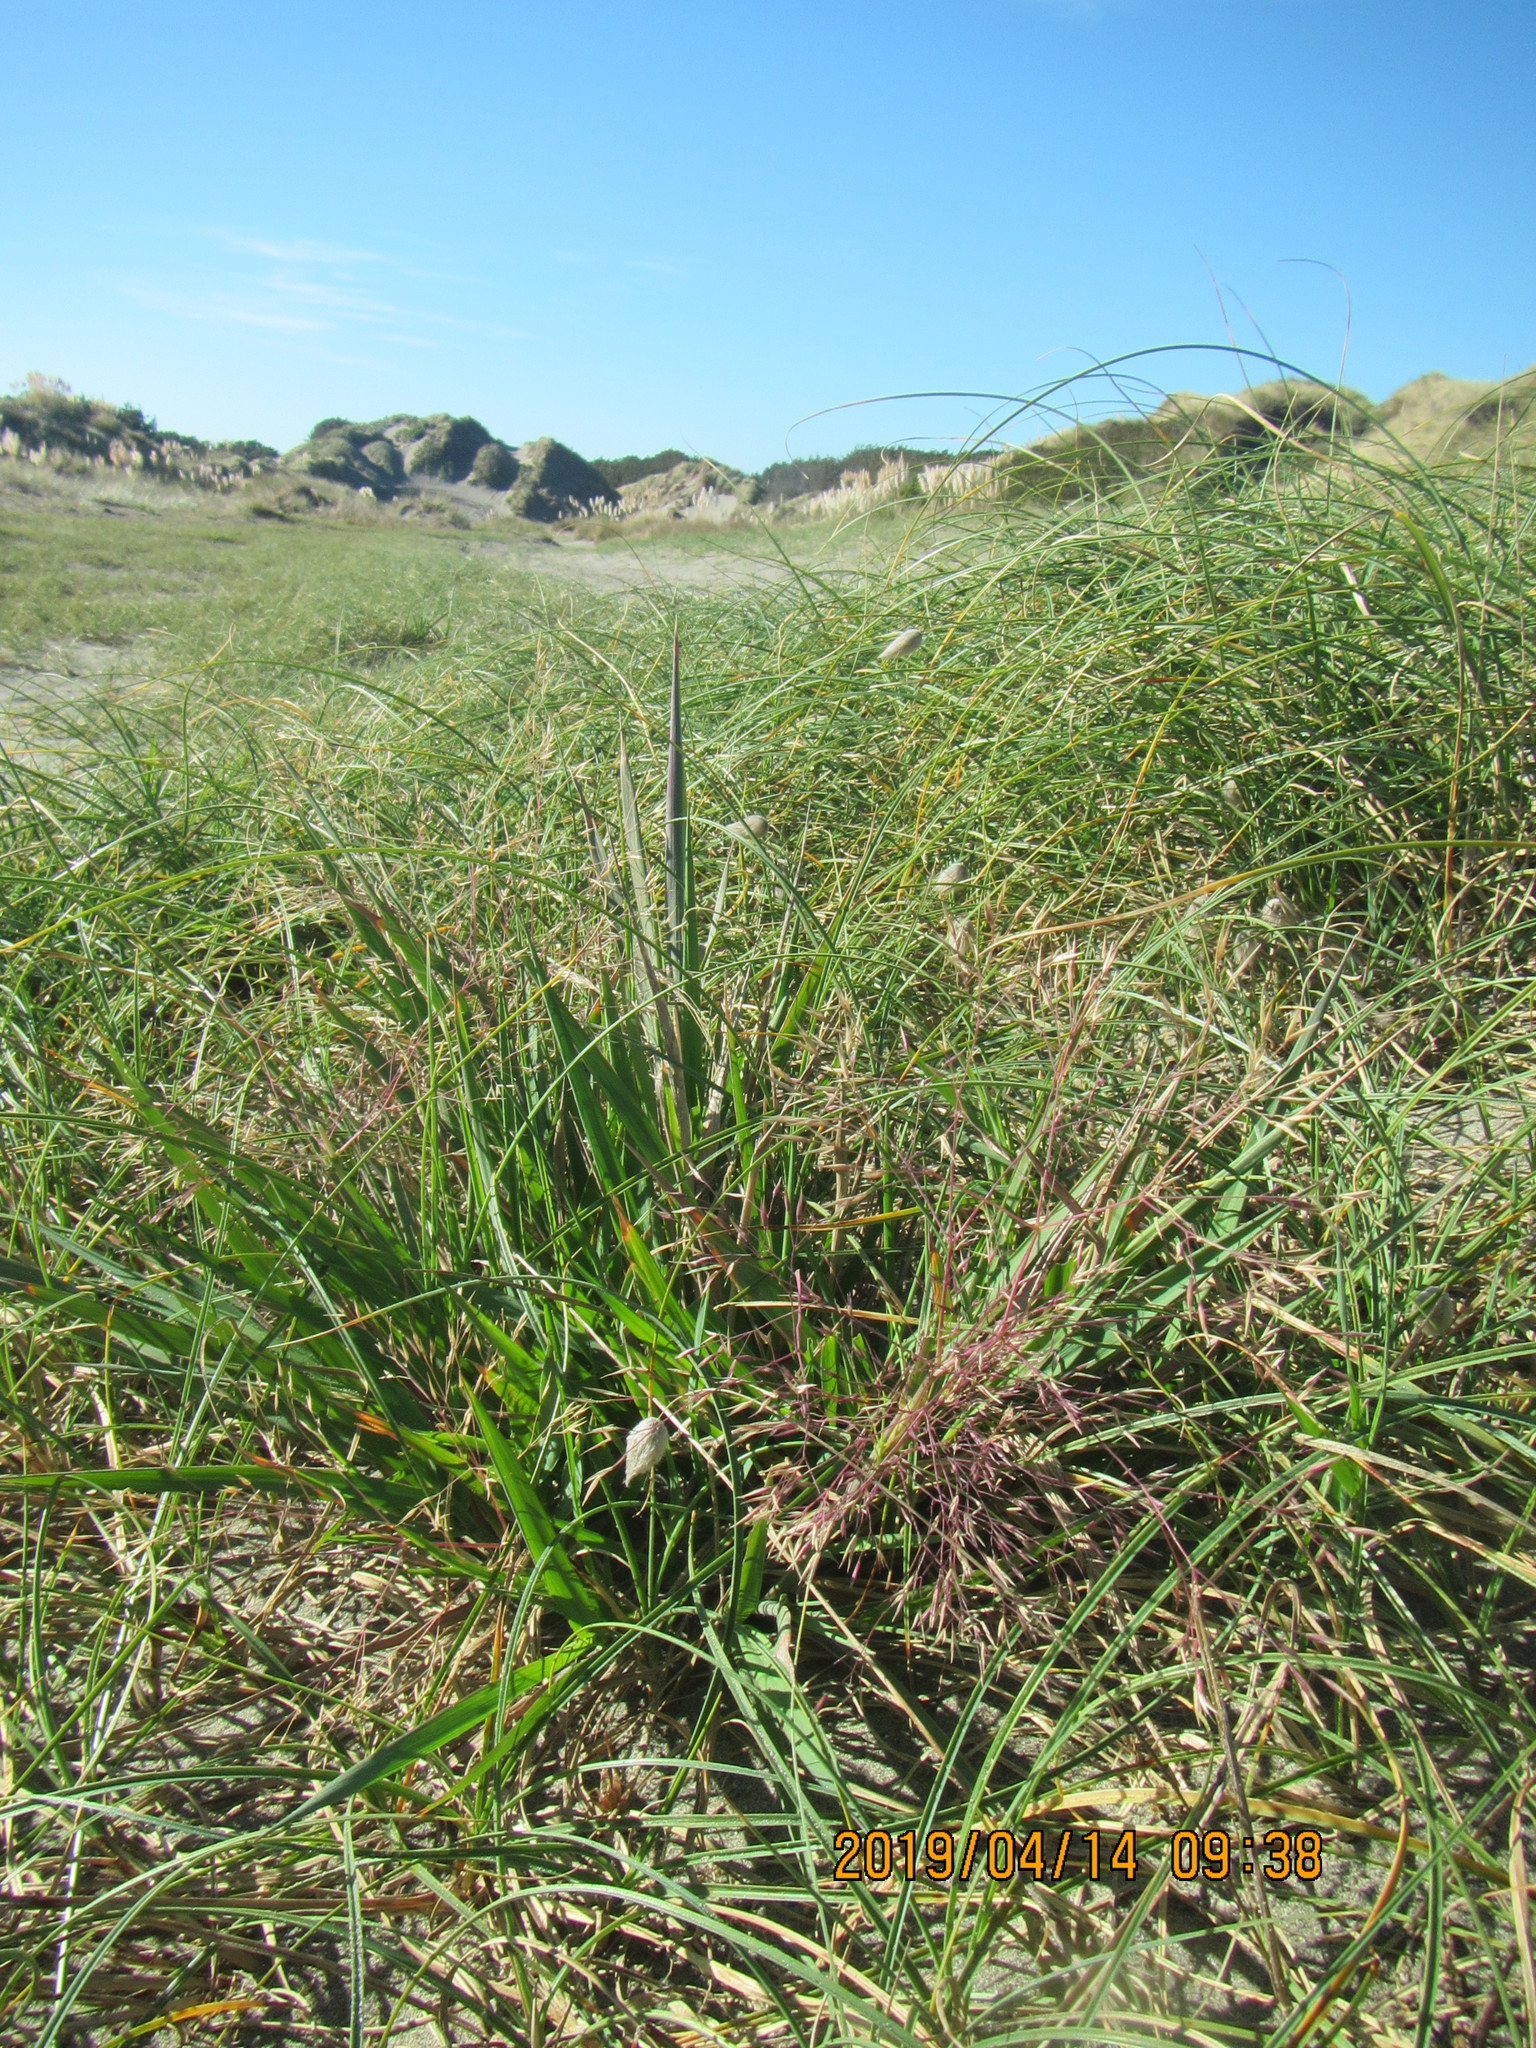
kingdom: Plantae
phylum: Tracheophyta
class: Liliopsida
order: Poales
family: Poaceae
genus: Lachnagrostis
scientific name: Lachnagrostis billardierei
